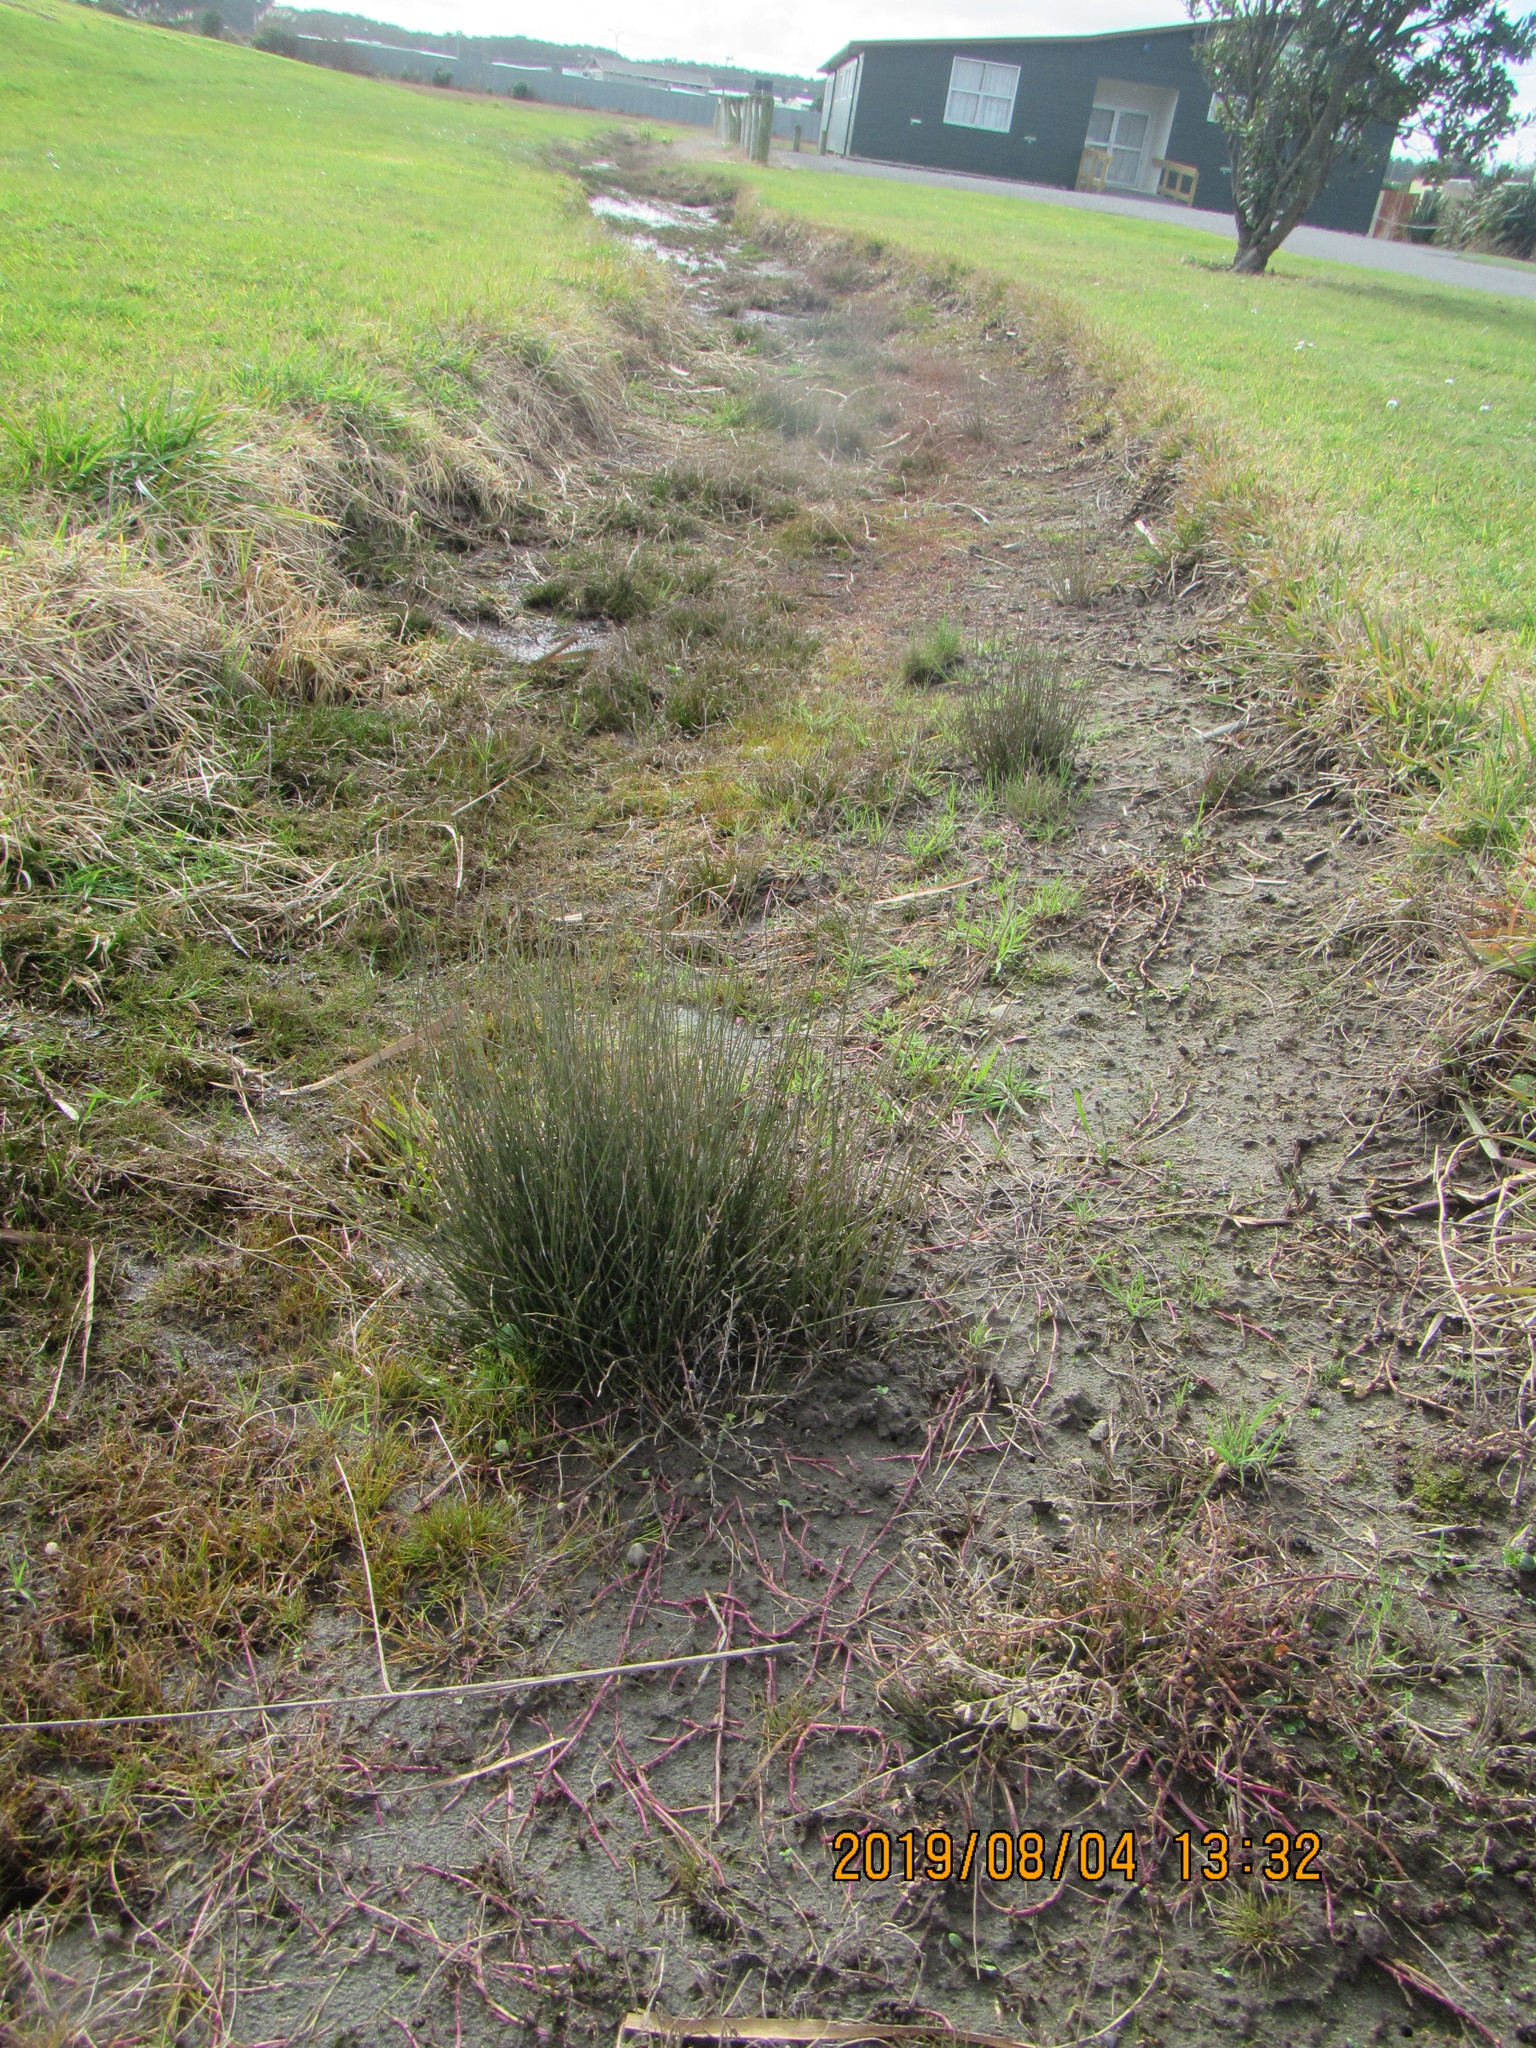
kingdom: Plantae
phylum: Tracheophyta
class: Magnoliopsida
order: Asterales
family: Campanulaceae
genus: Lobelia
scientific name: Lobelia anceps
